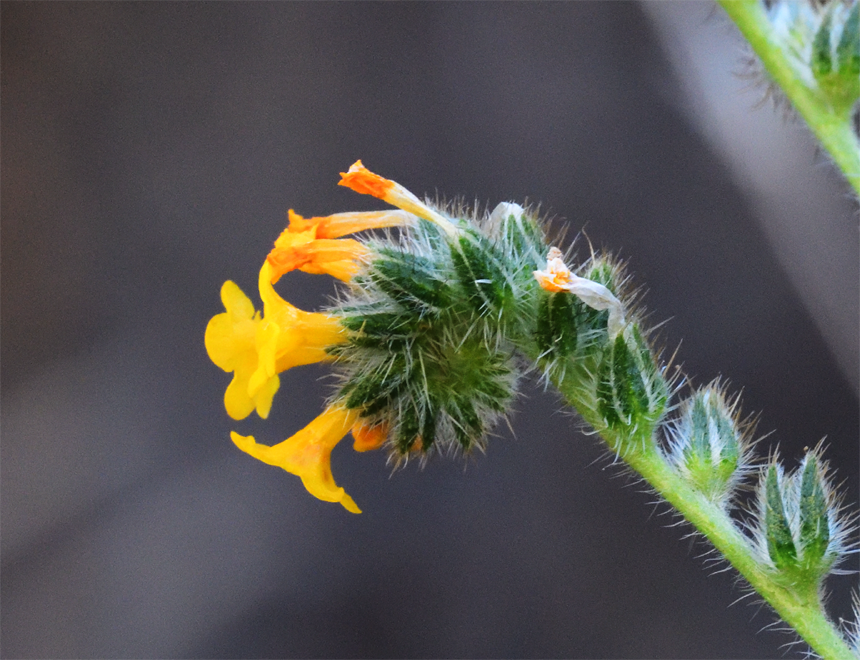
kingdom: Plantae
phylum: Tracheophyta
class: Magnoliopsida
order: Boraginales
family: Boraginaceae
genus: Amsinckia
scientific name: Amsinckia menziesii
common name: Menzies' fiddleneck
